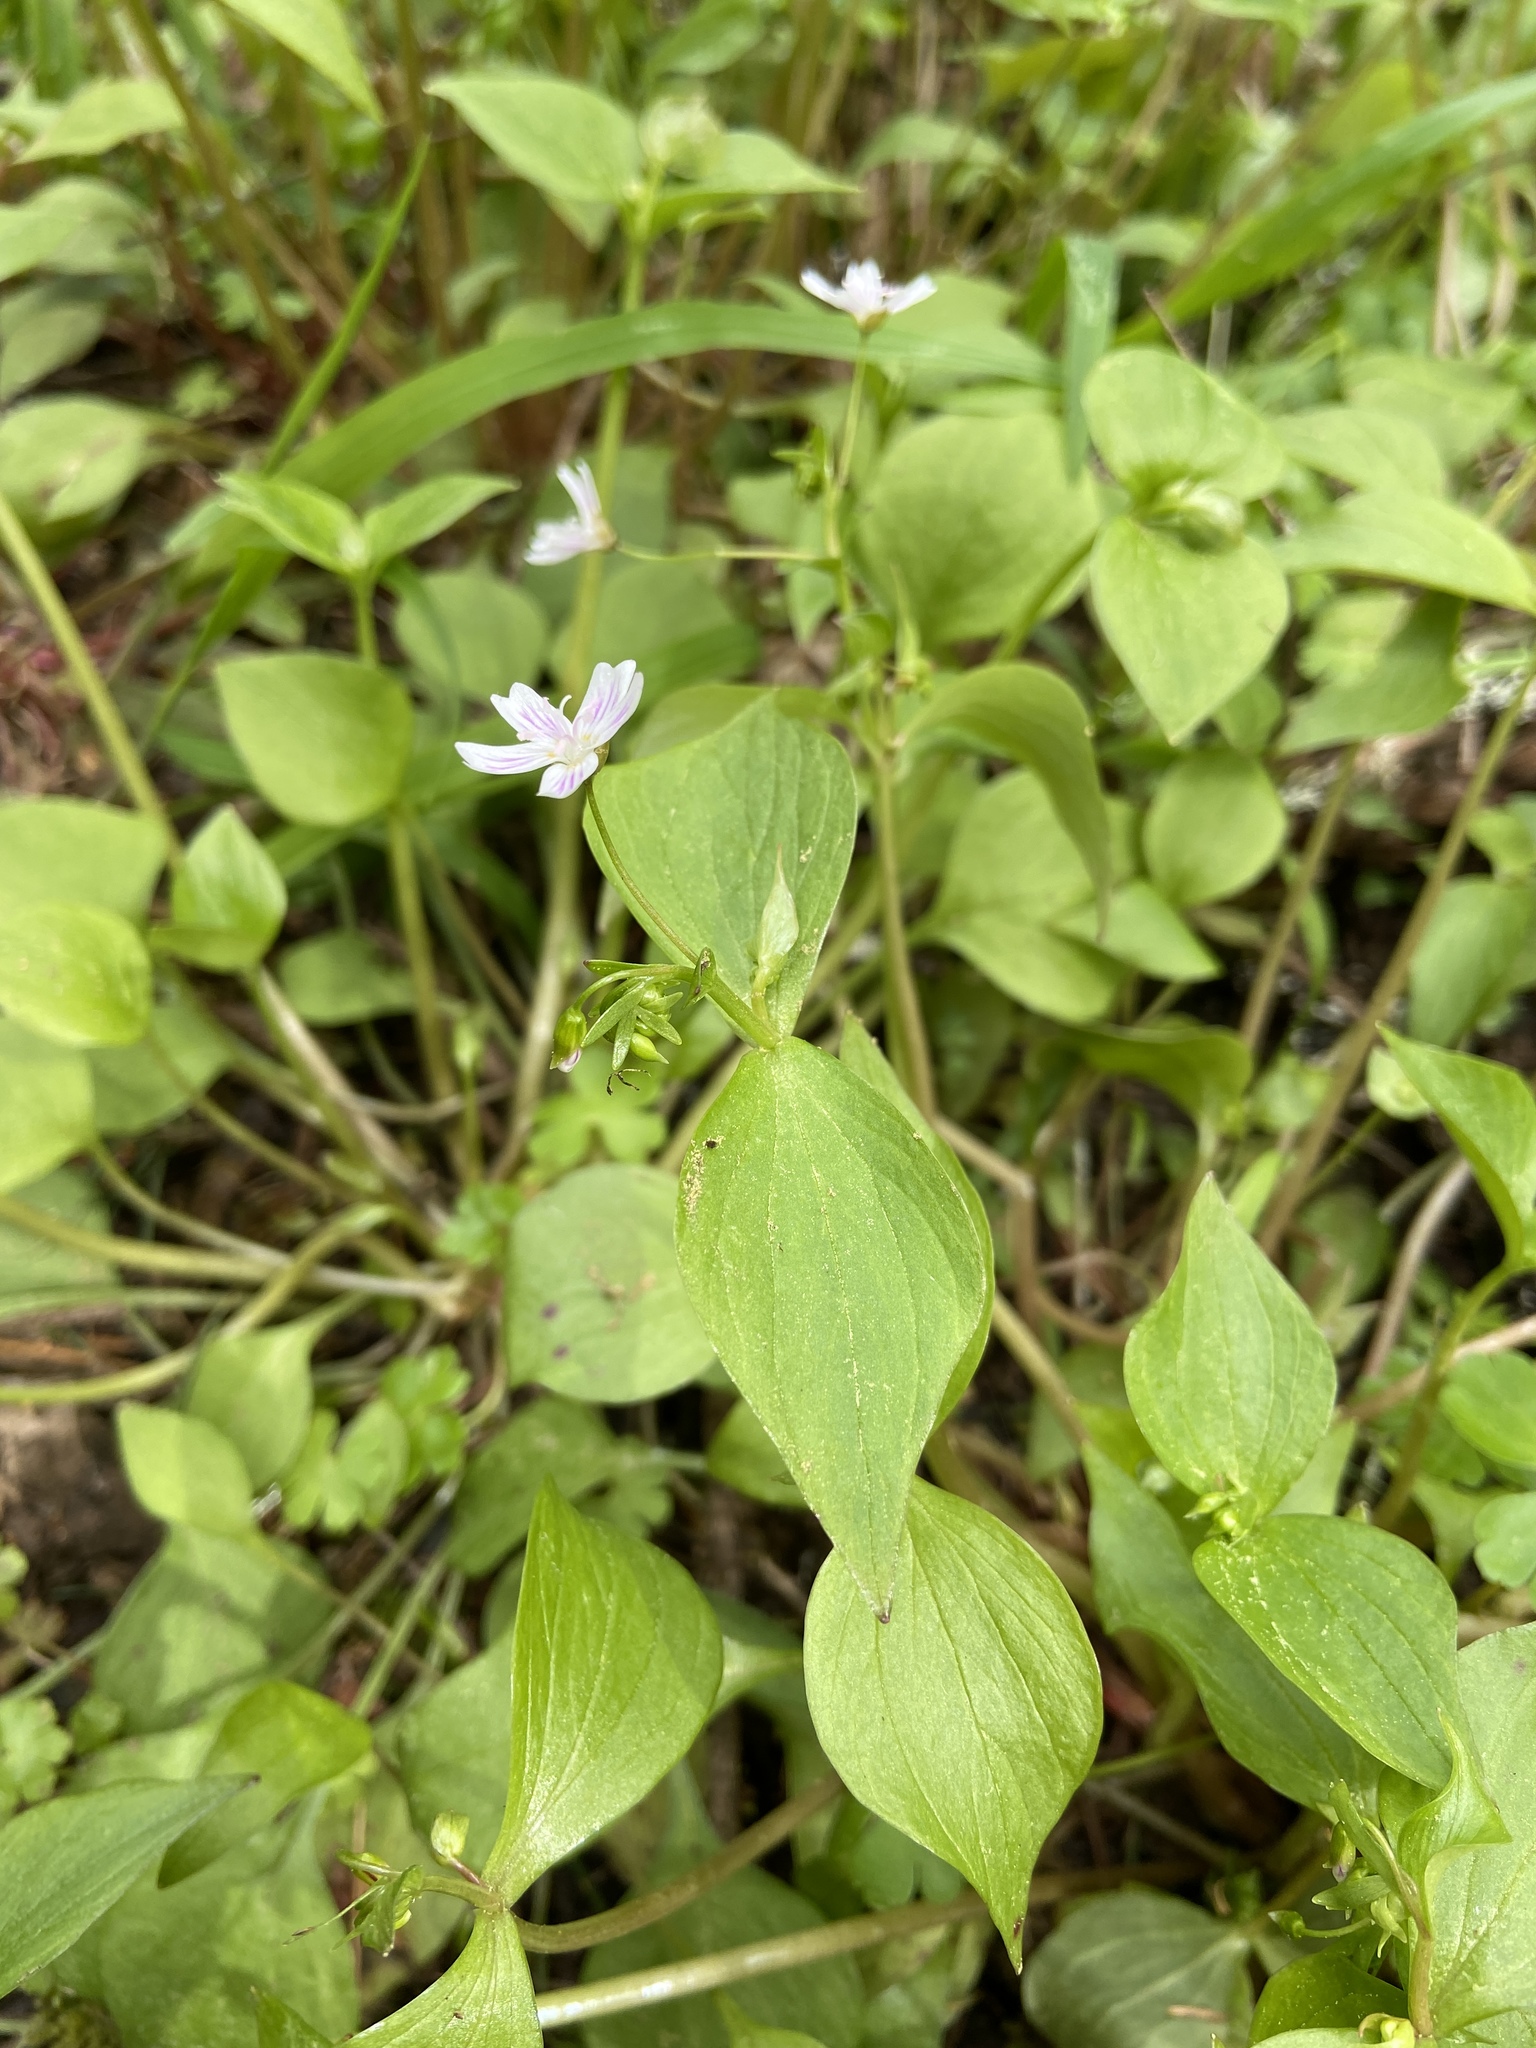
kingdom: Plantae
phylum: Tracheophyta
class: Magnoliopsida
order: Caryophyllales
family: Montiaceae
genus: Claytonia
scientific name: Claytonia sibirica
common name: Pink purslane
